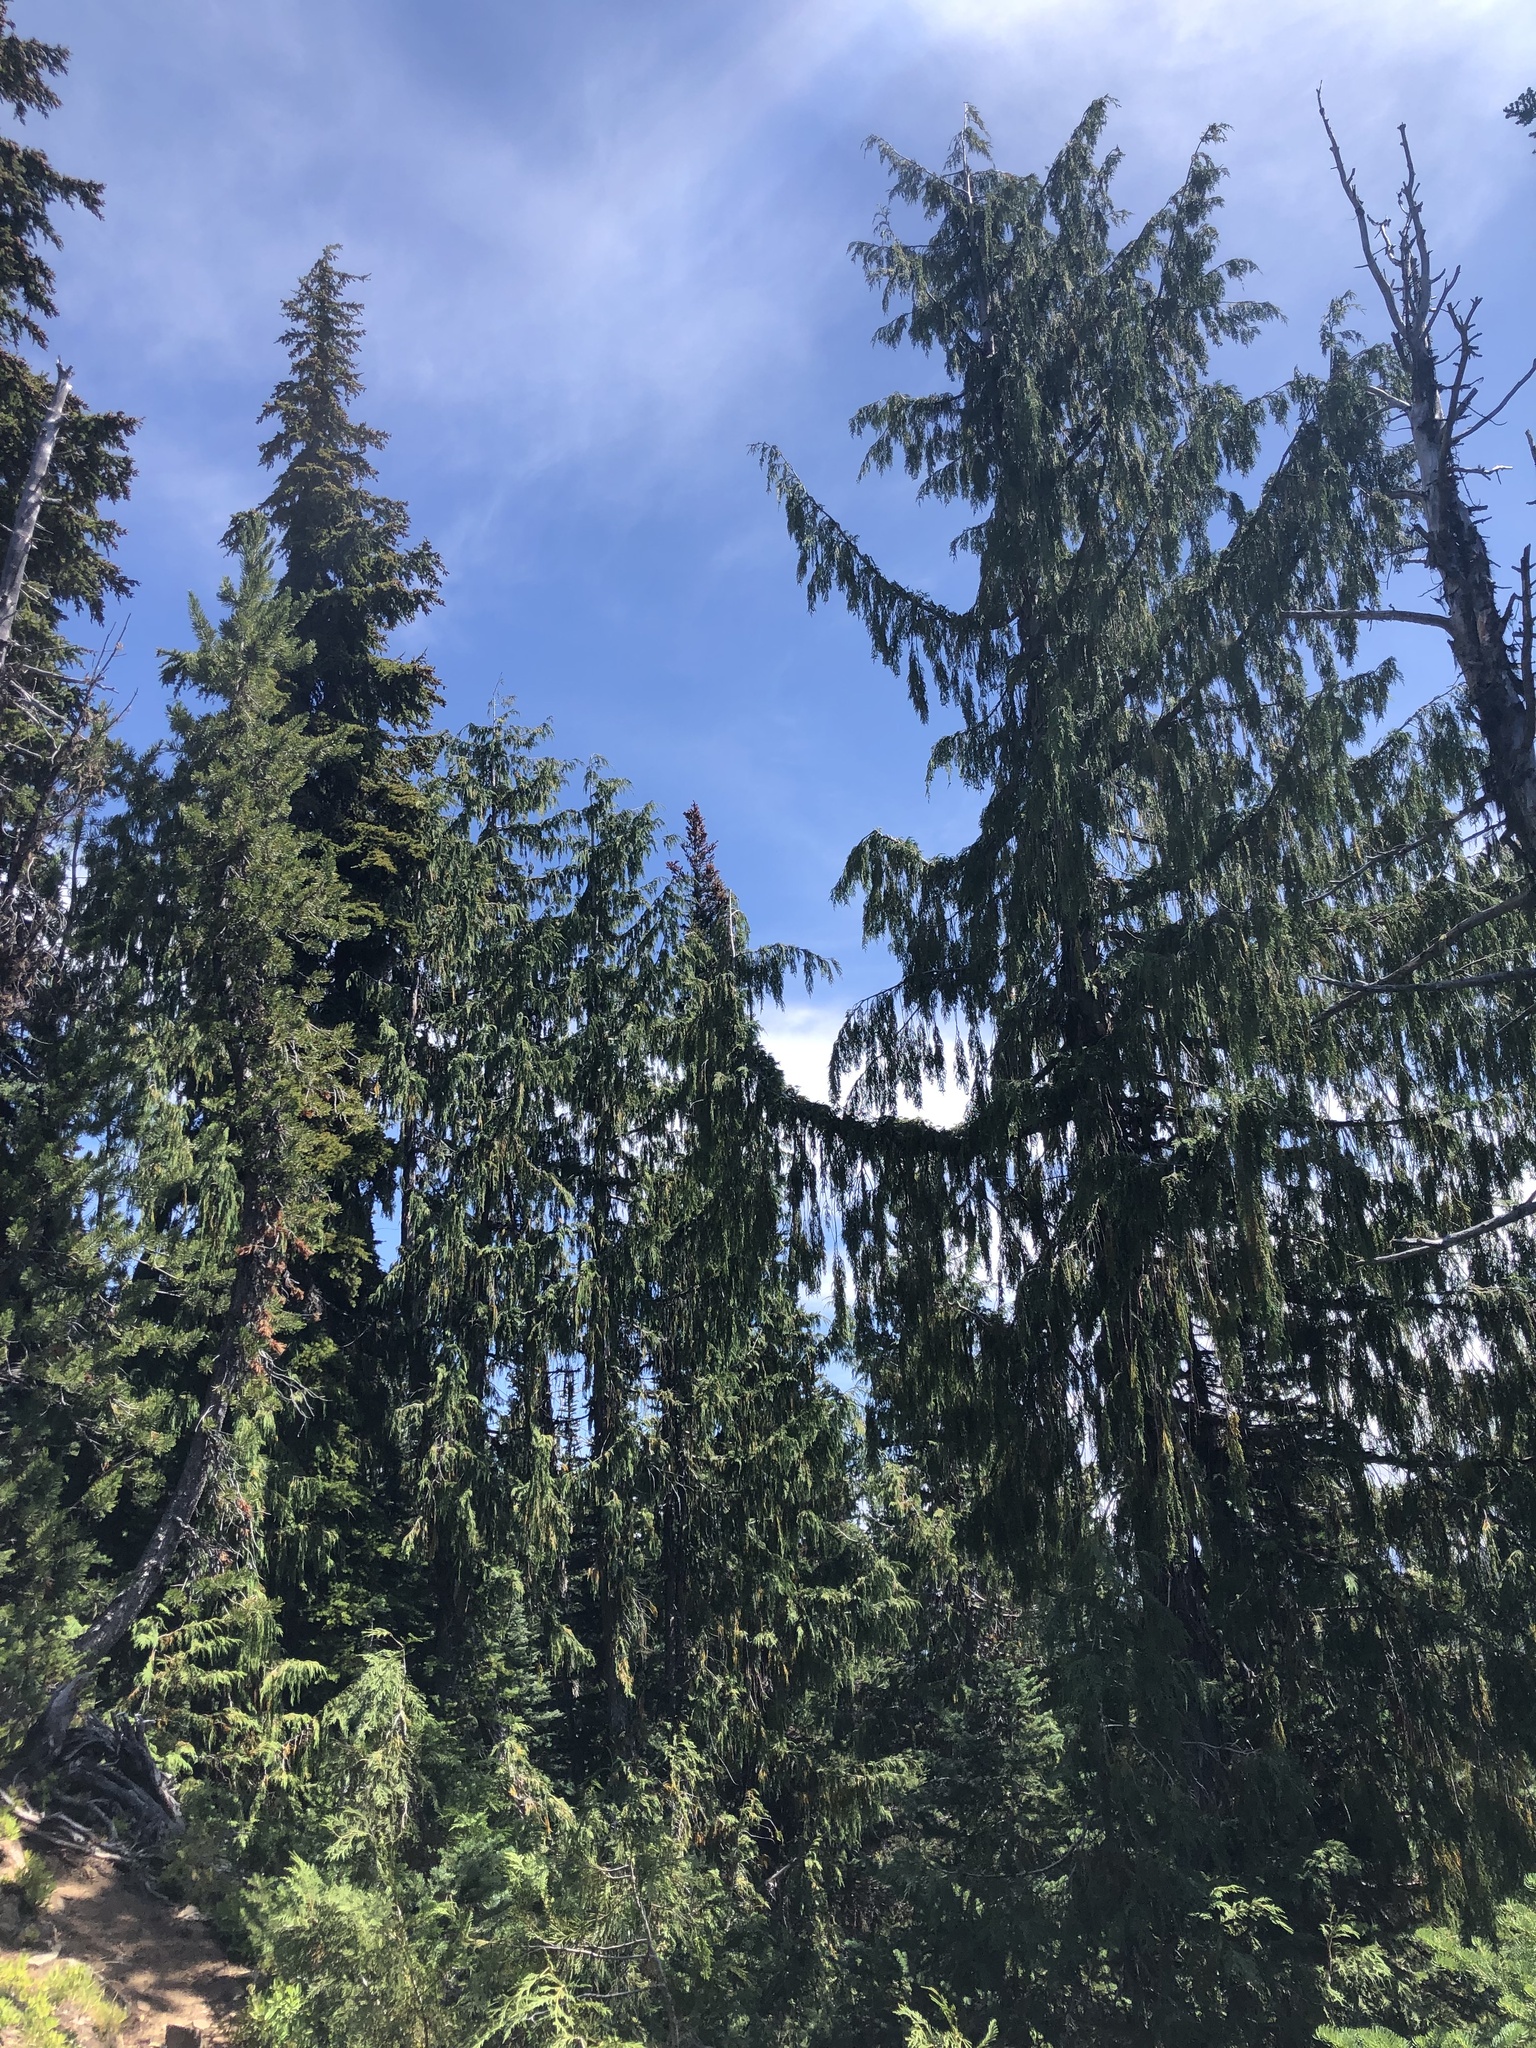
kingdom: Plantae
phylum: Tracheophyta
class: Pinopsida
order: Pinales
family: Cupressaceae
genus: Xanthocyparis
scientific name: Xanthocyparis nootkatensis
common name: Nootka cypress
